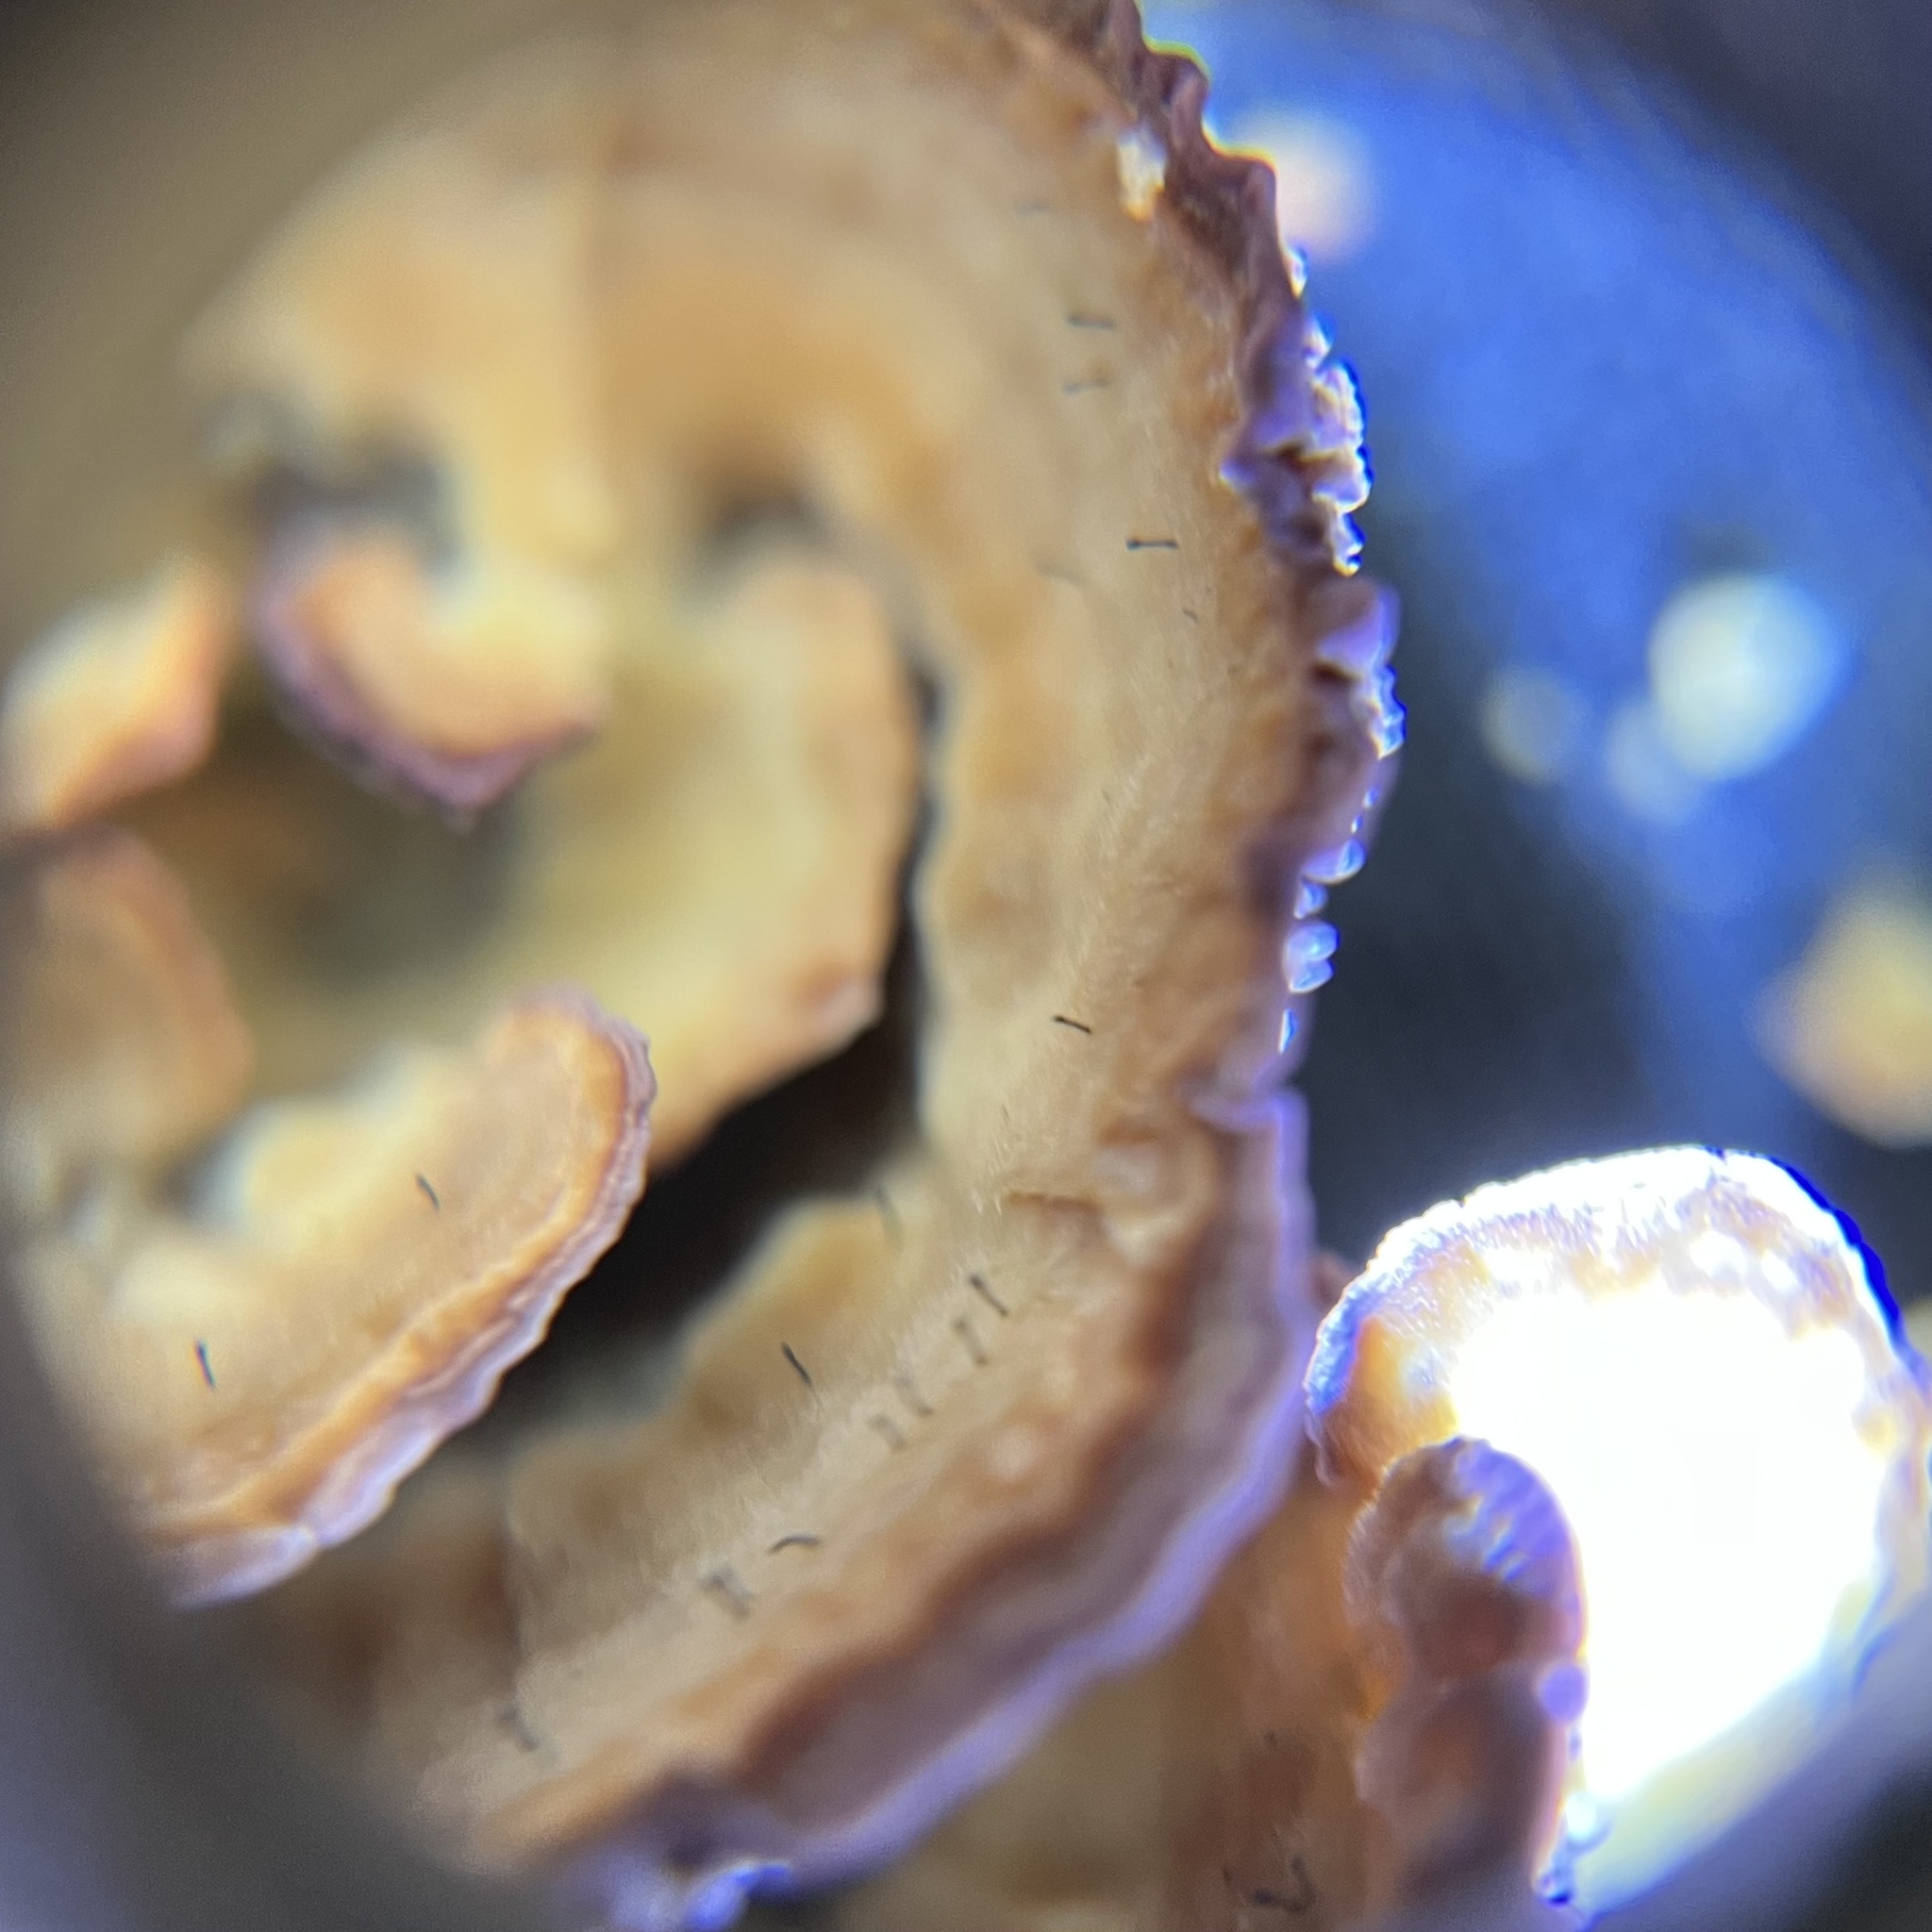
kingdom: Fungi
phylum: Ascomycota
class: Eurotiomycetes
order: Mycocaliciales
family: Mycocaliciaceae
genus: Phaeocalicium
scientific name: Phaeocalicium polyporaeum
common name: Fairy pins
